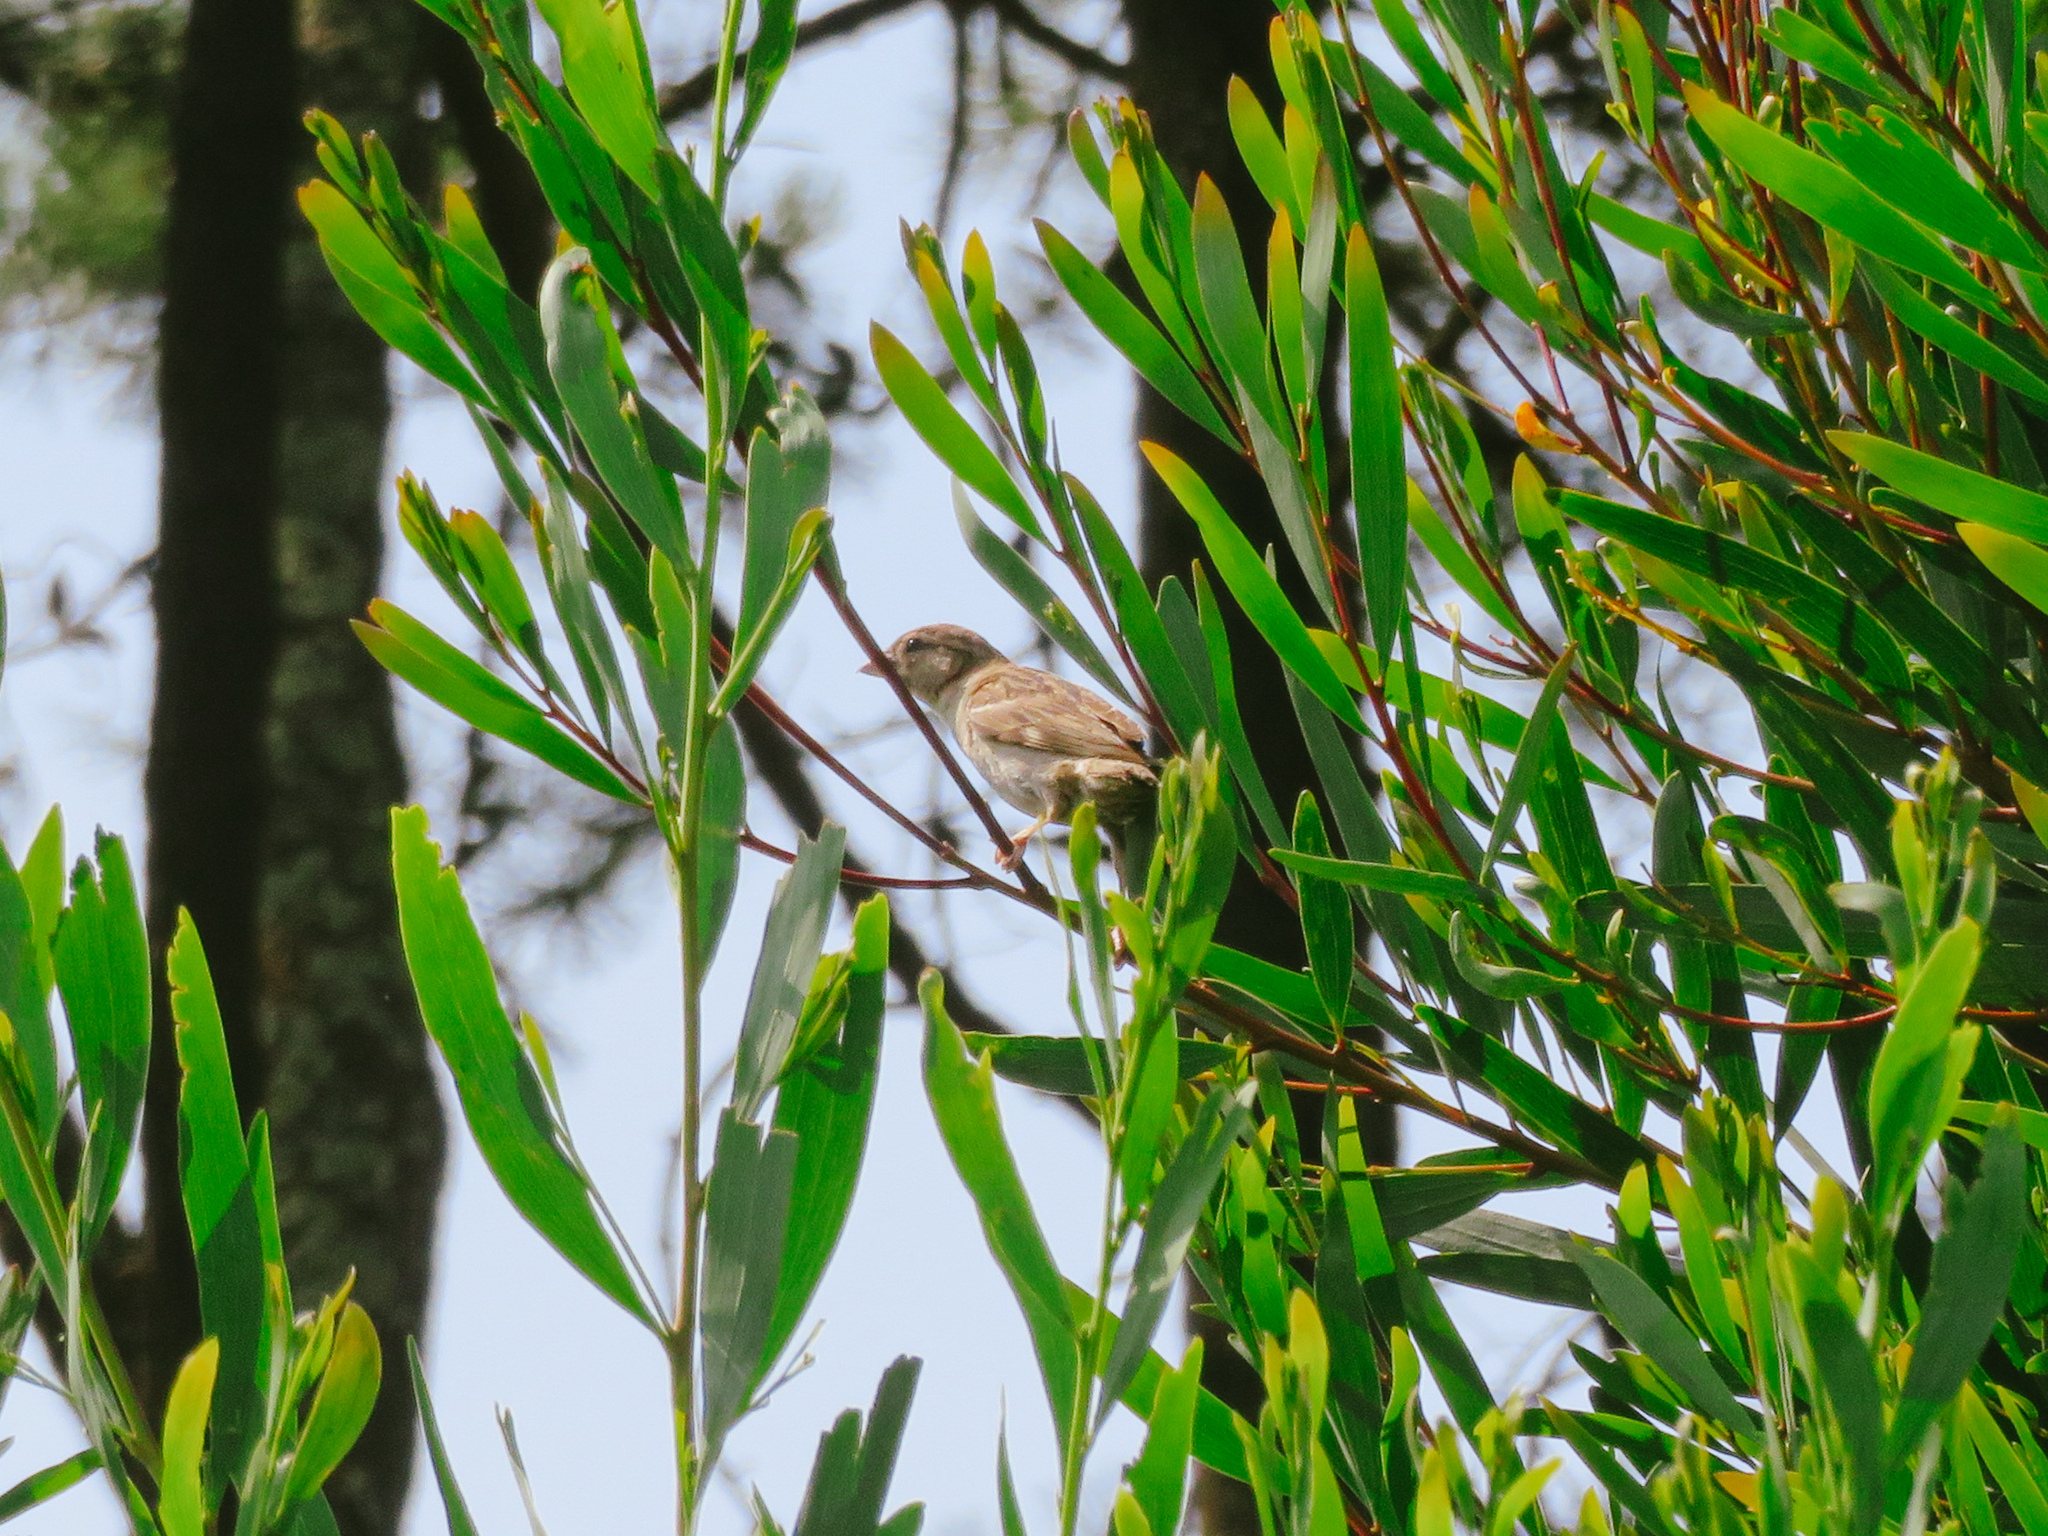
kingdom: Animalia
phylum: Chordata
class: Aves
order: Passeriformes
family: Passeridae
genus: Passer
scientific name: Passer domesticus
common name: House sparrow
